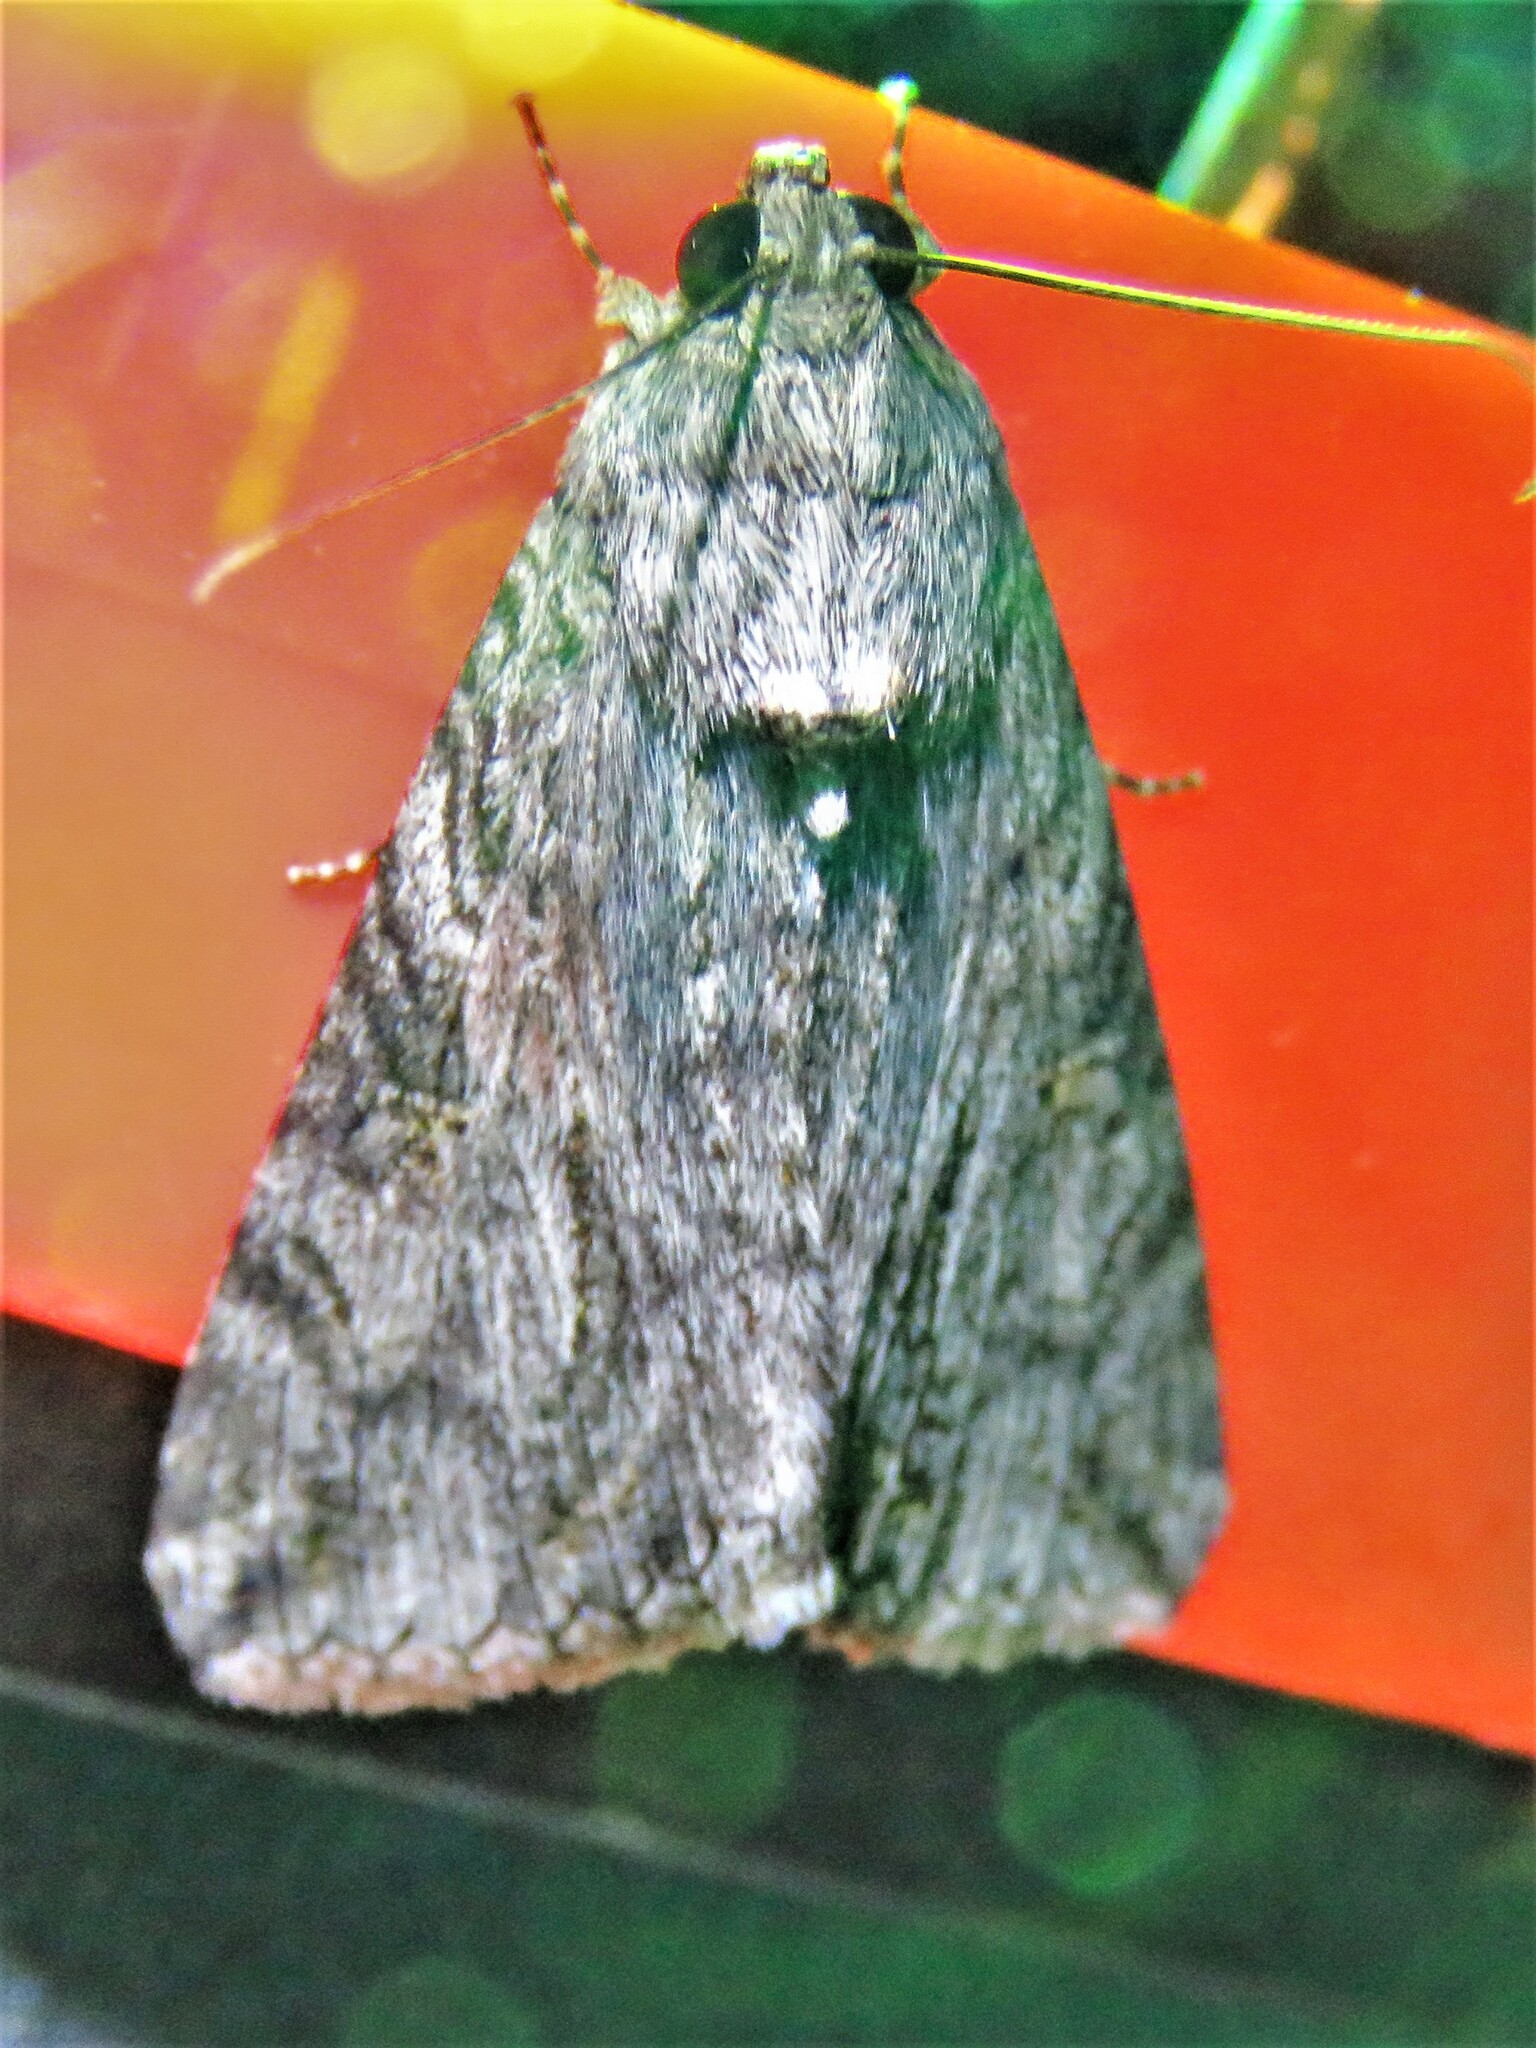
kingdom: Animalia
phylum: Arthropoda
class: Insecta
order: Lepidoptera
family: Erebidae
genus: Melipotis
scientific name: Melipotis jucunda
